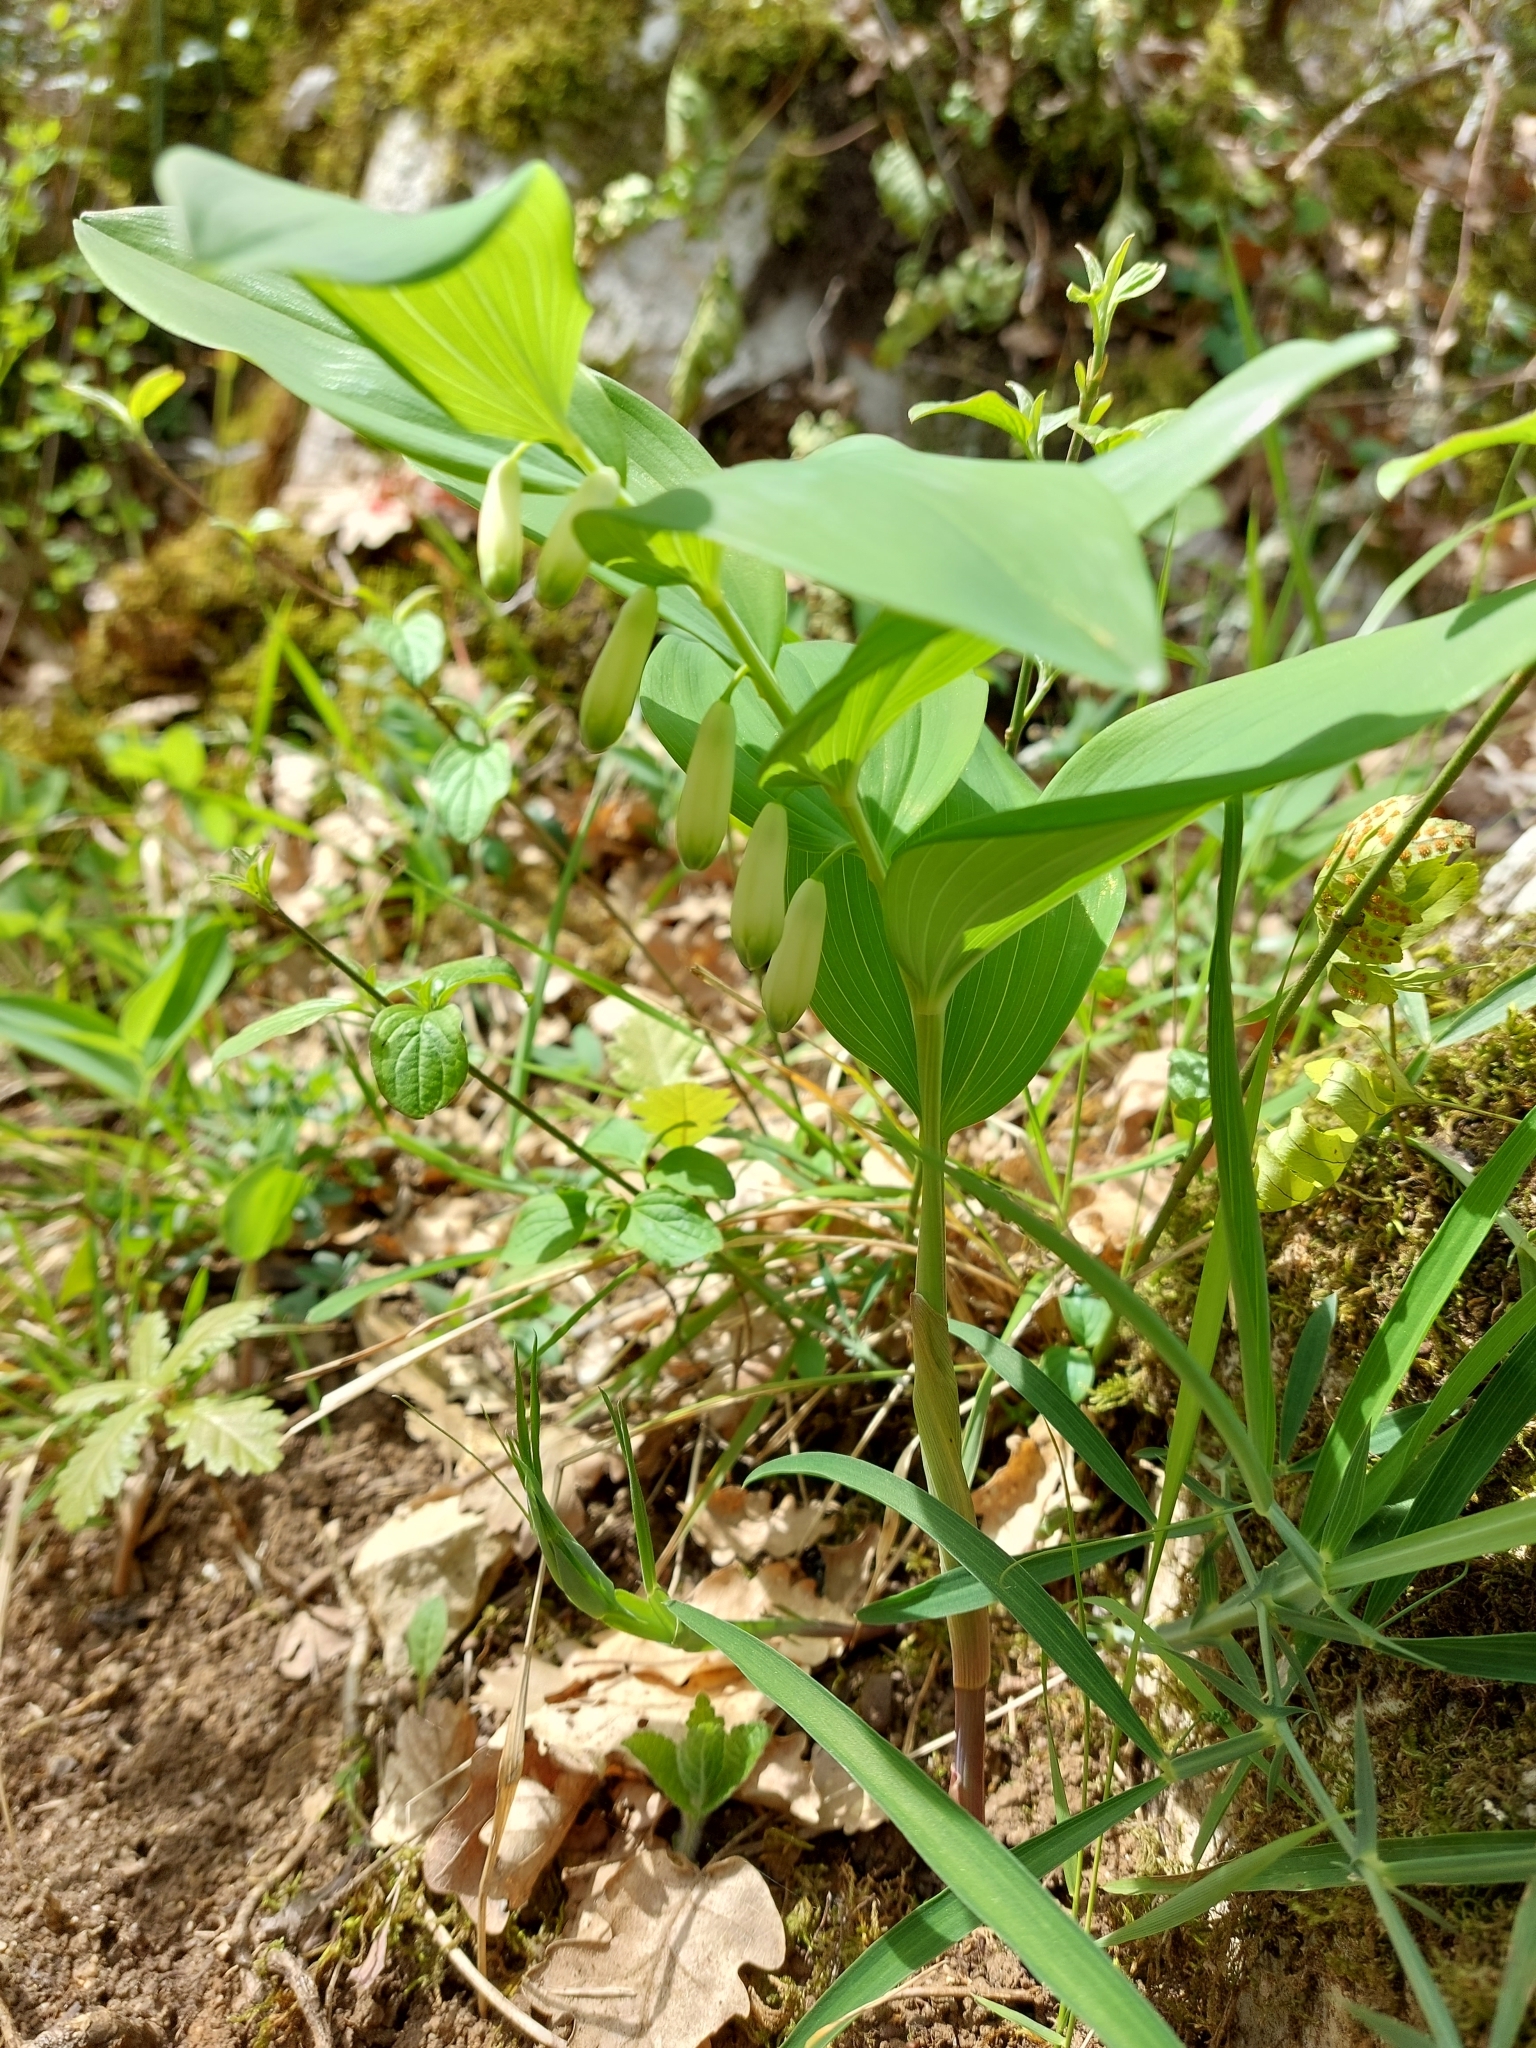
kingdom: Plantae
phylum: Tracheophyta
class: Liliopsida
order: Asparagales
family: Asparagaceae
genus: Polygonatum
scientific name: Polygonatum odoratum
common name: Angular solomon's-seal
